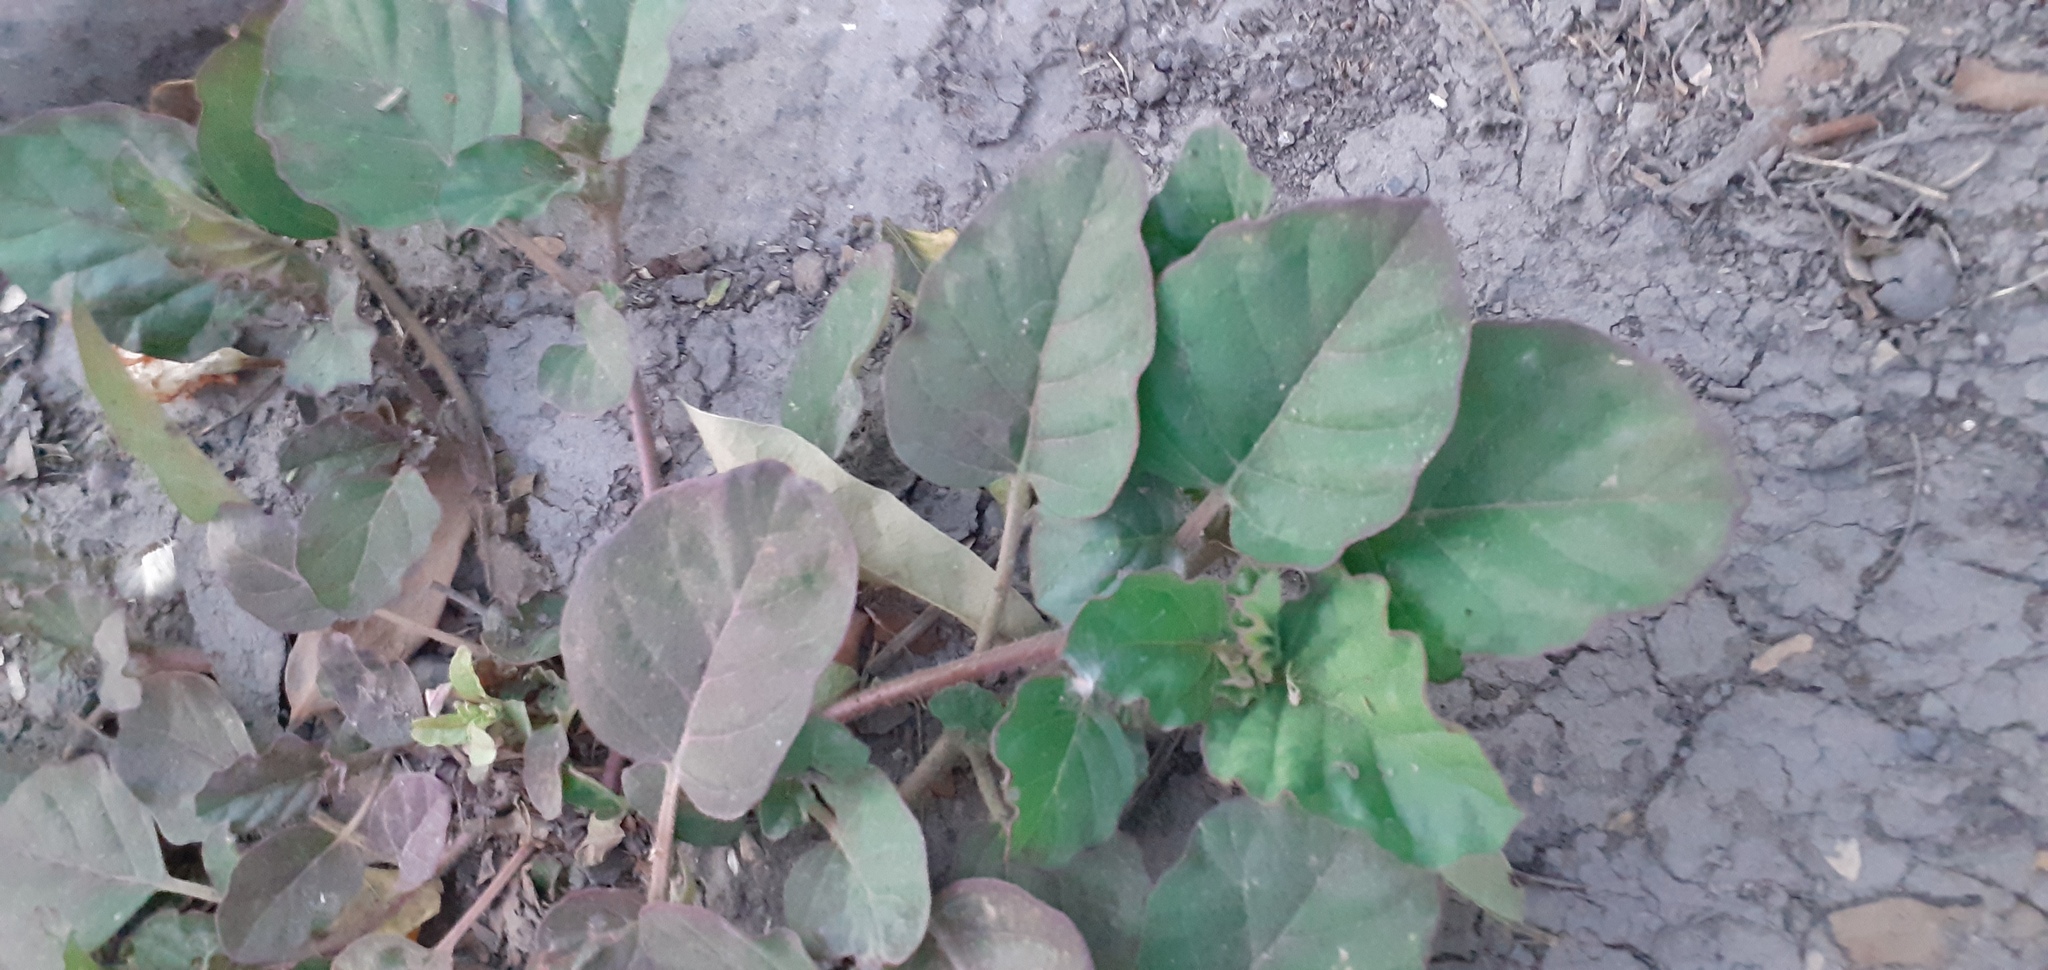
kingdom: Plantae
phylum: Tracheophyta
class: Magnoliopsida
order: Caryophyllales
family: Nyctaginaceae
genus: Boerhavia
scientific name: Boerhavia coccinea
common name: Scarlet spiderling
